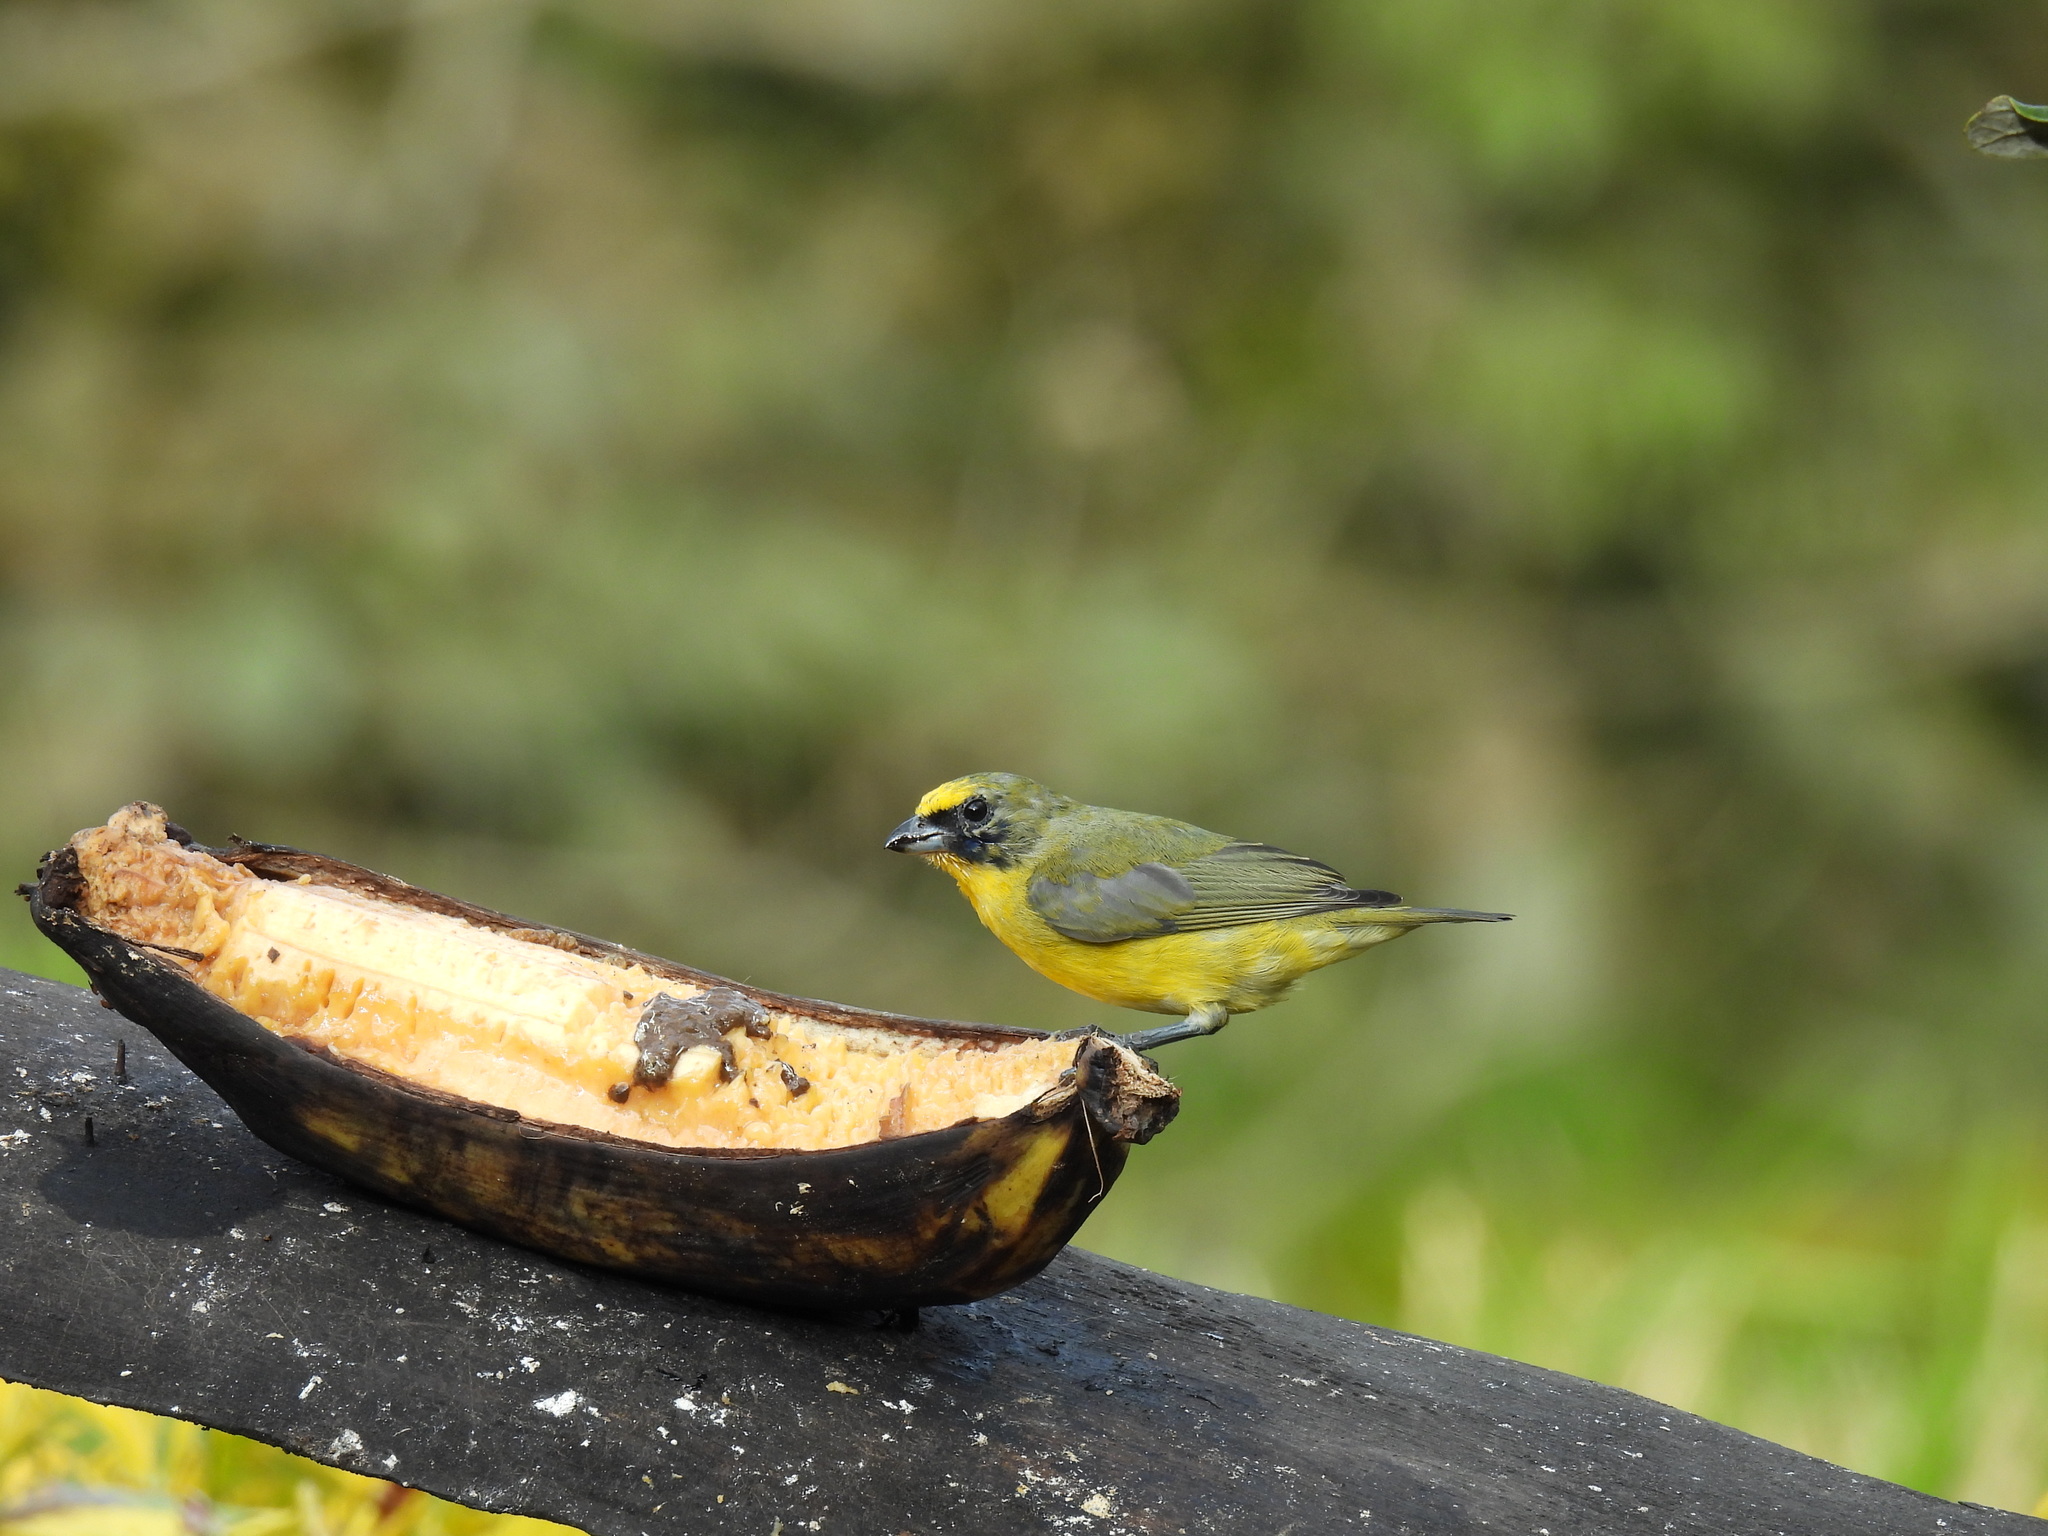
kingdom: Animalia
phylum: Chordata
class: Aves
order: Passeriformes
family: Fringillidae
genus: Euphonia
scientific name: Euphonia laniirostris
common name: Thick-billed euphonia
